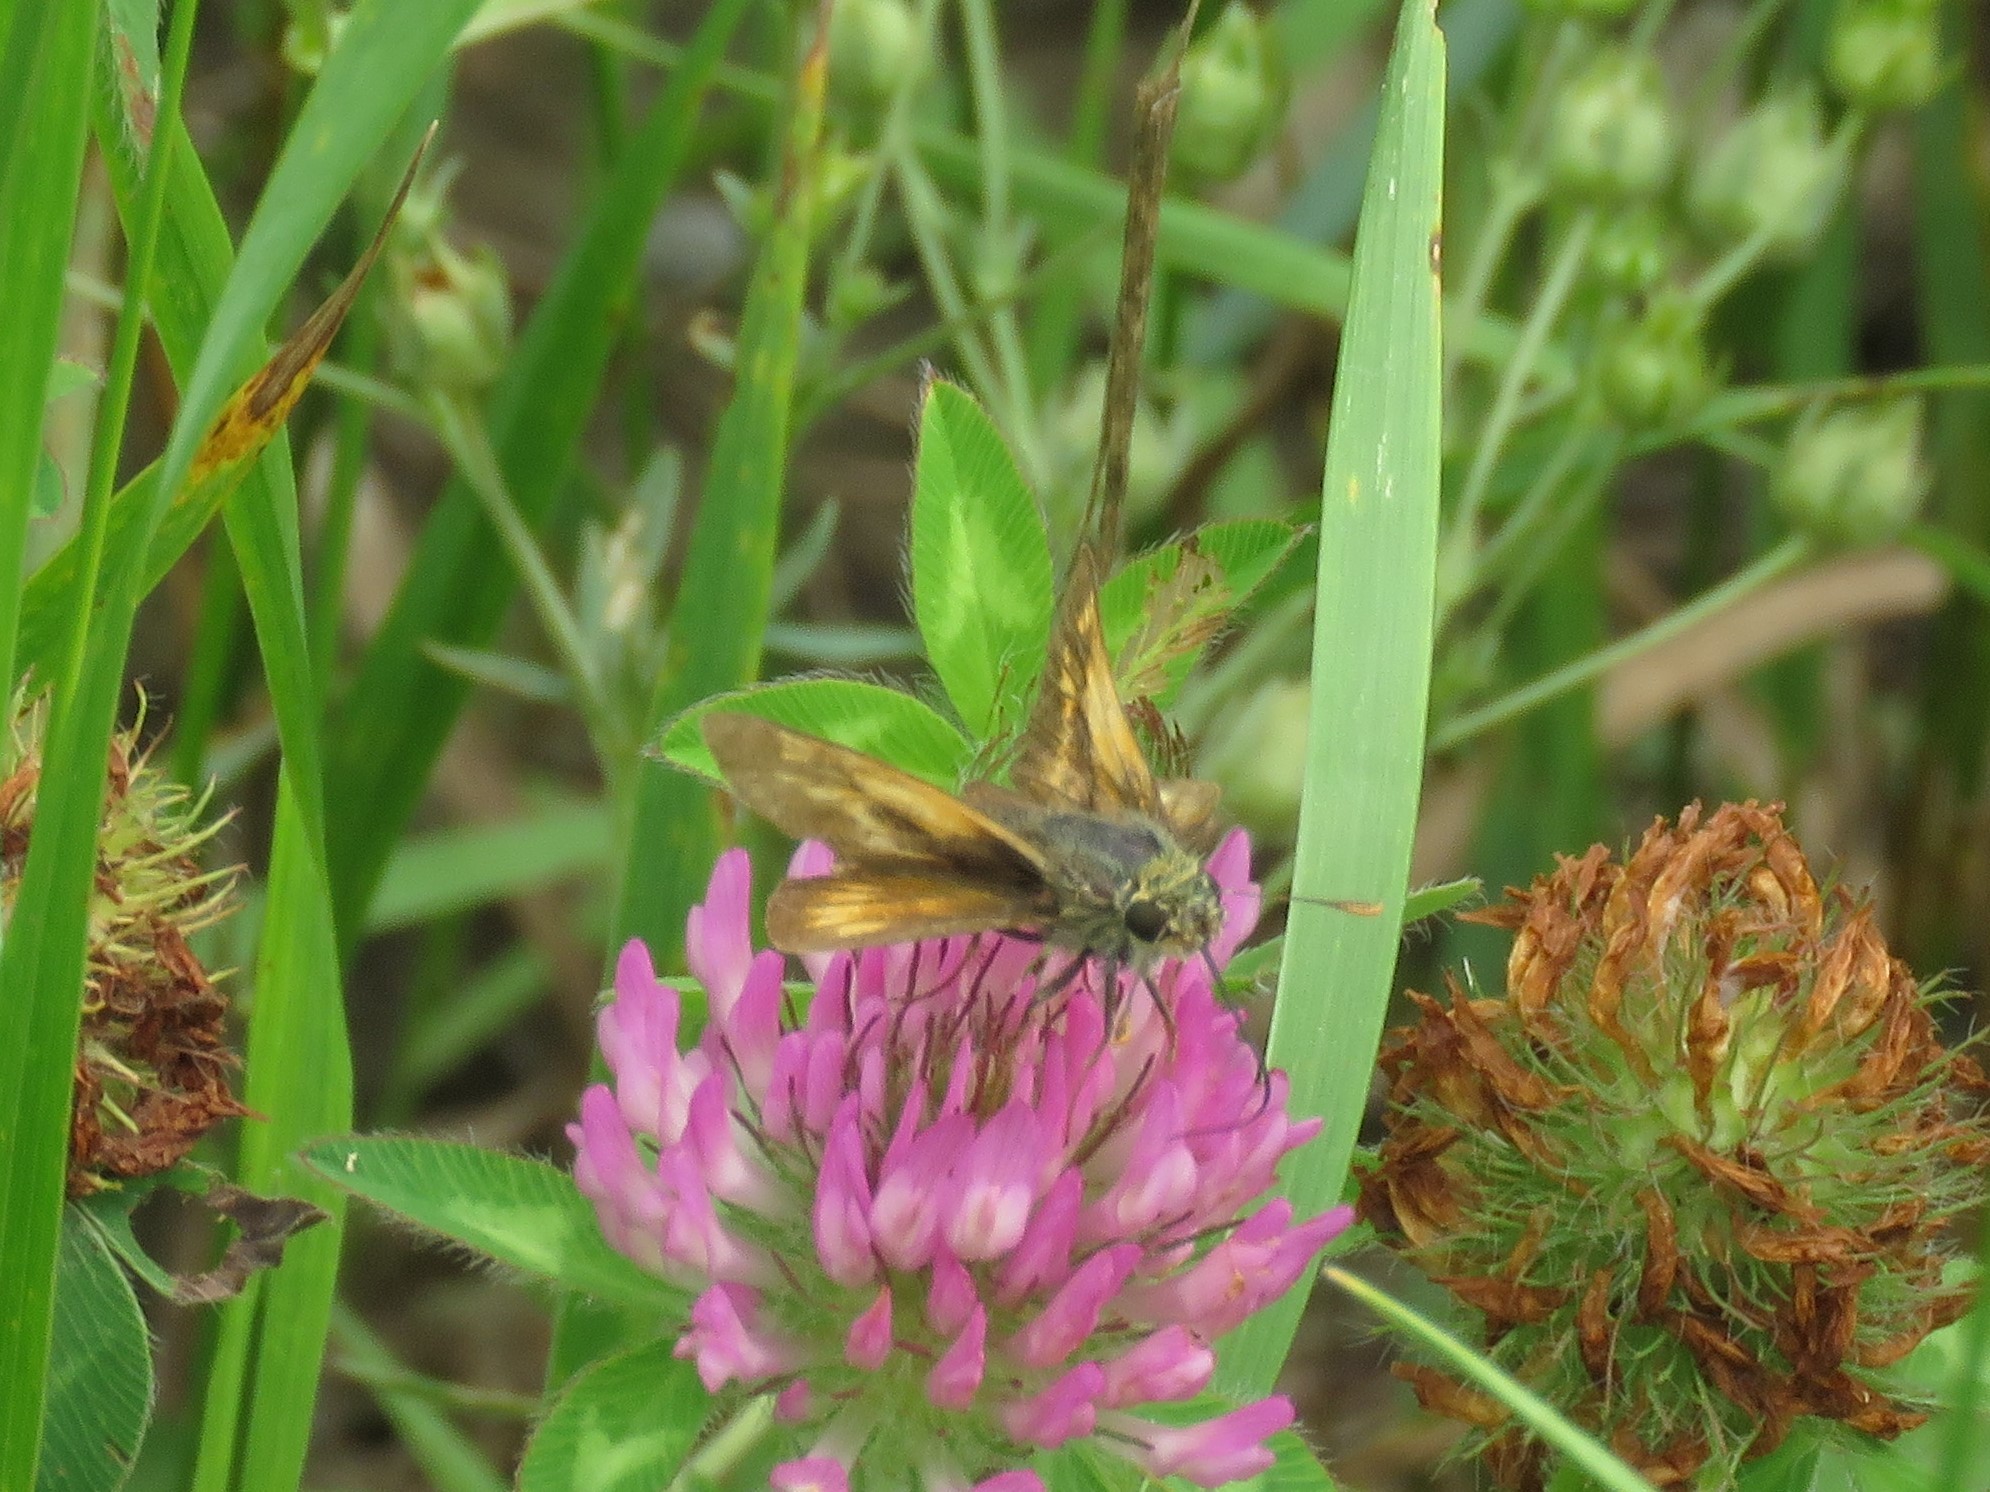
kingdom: Animalia
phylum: Arthropoda
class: Insecta
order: Lepidoptera
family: Hesperiidae
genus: Polites
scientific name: Polites mystic
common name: Long dash
